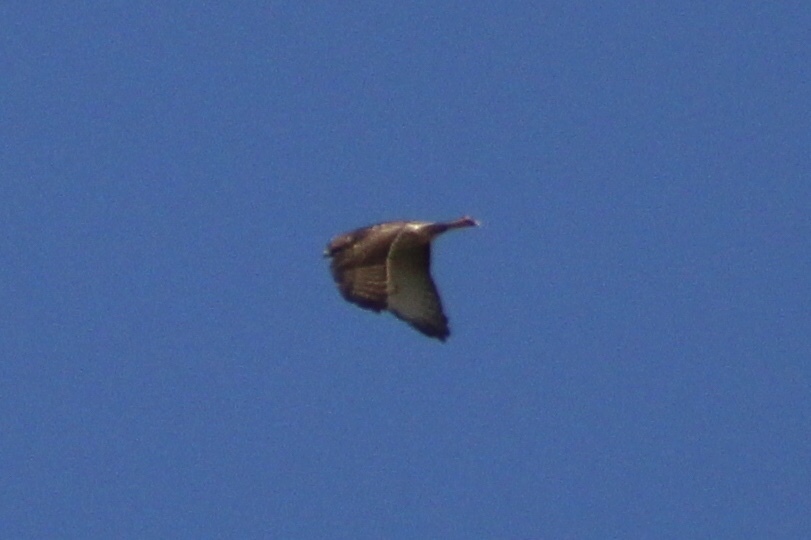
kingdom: Animalia
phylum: Chordata
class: Aves
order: Accipitriformes
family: Accipitridae
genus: Buteo
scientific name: Buteo platypterus
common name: Broad-winged hawk
